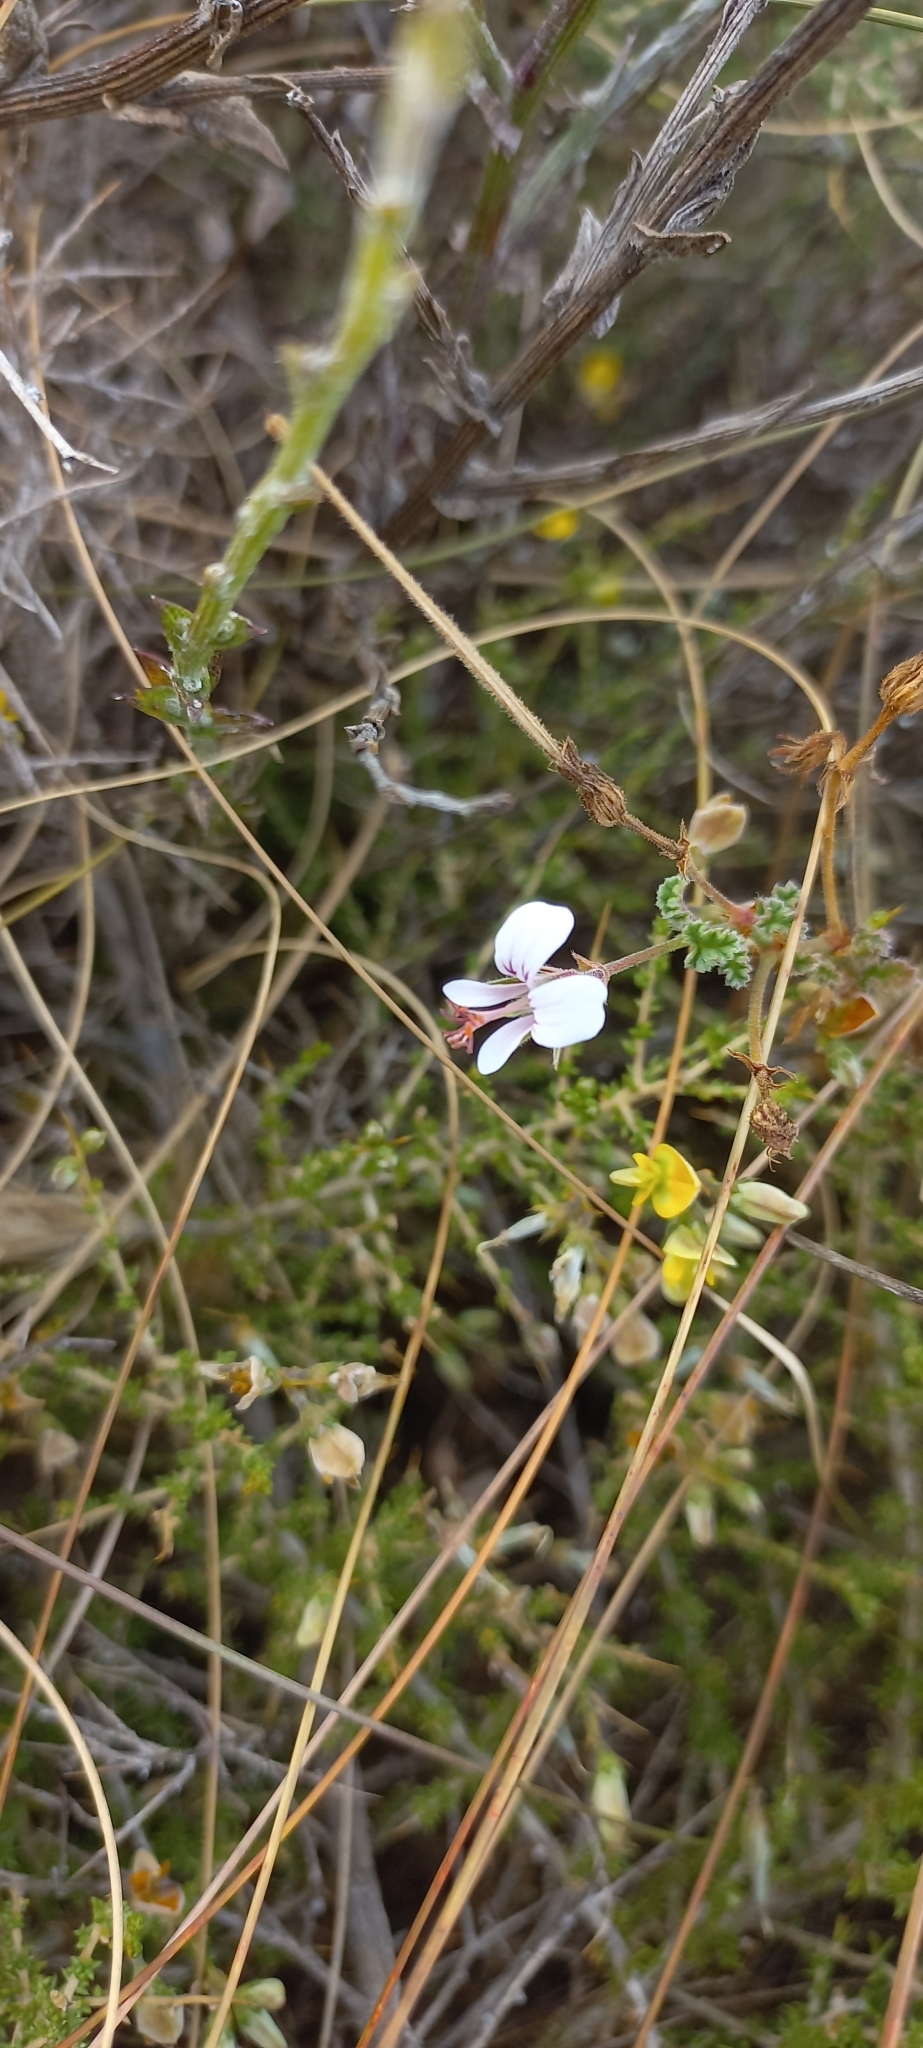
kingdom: Plantae
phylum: Tracheophyta
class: Magnoliopsida
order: Geraniales
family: Geraniaceae
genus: Pelargonium
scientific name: Pelargonium candicans
